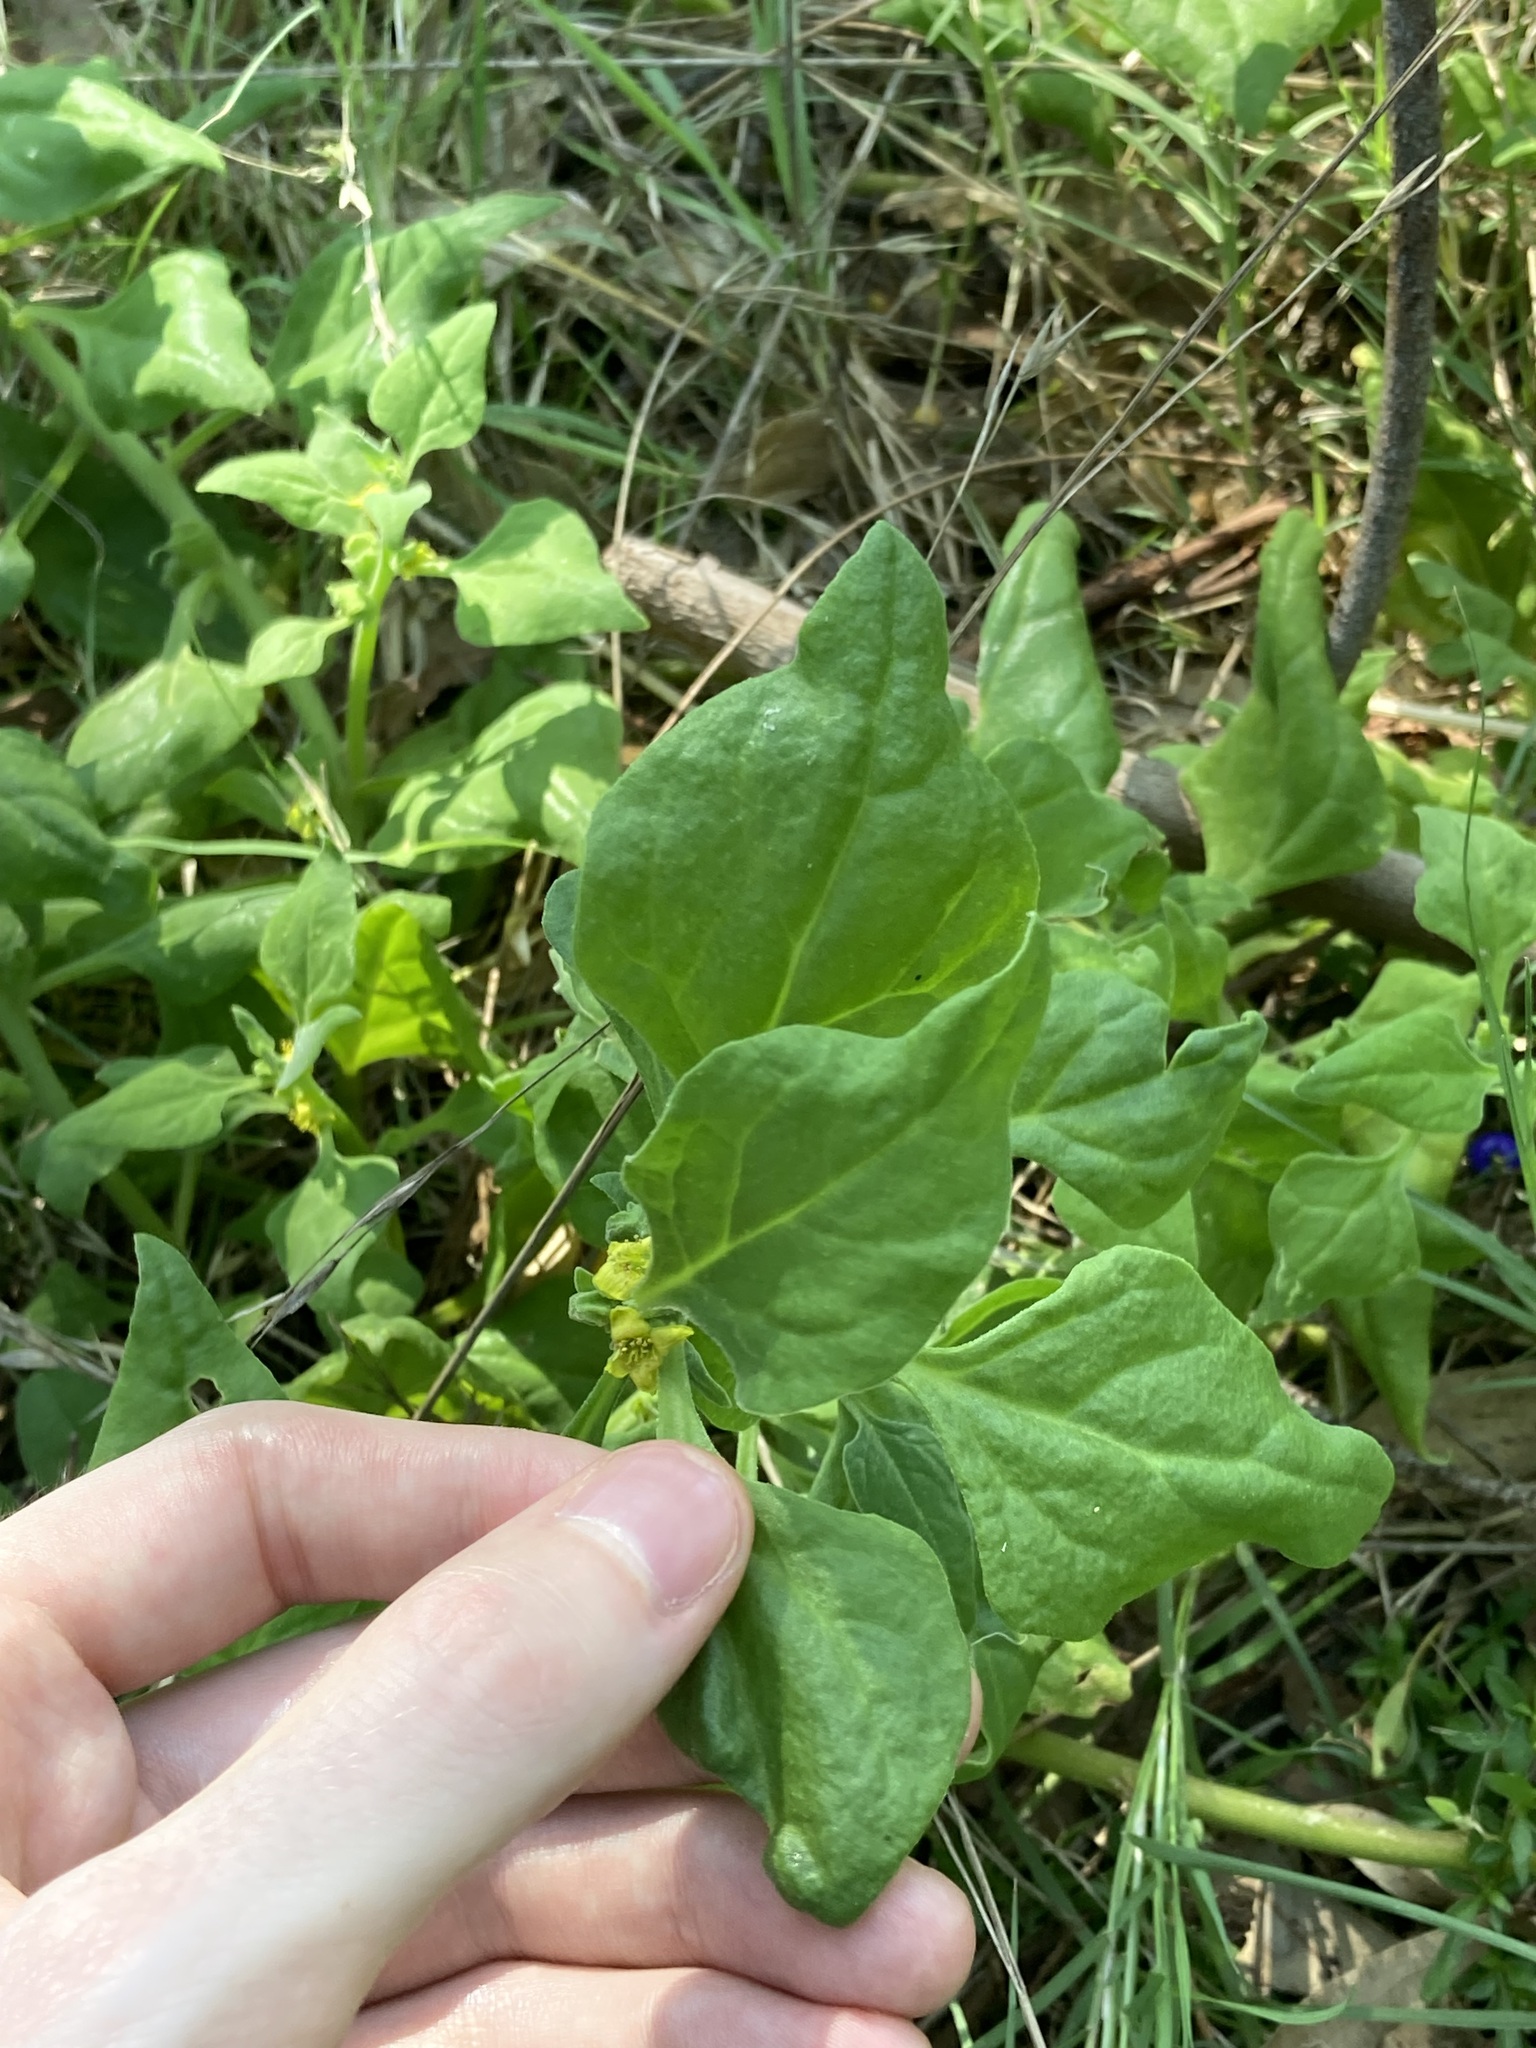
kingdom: Plantae
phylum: Tracheophyta
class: Magnoliopsida
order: Caryophyllales
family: Aizoaceae
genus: Tetragonia
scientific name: Tetragonia tetragonoides
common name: New zealand-spinach
